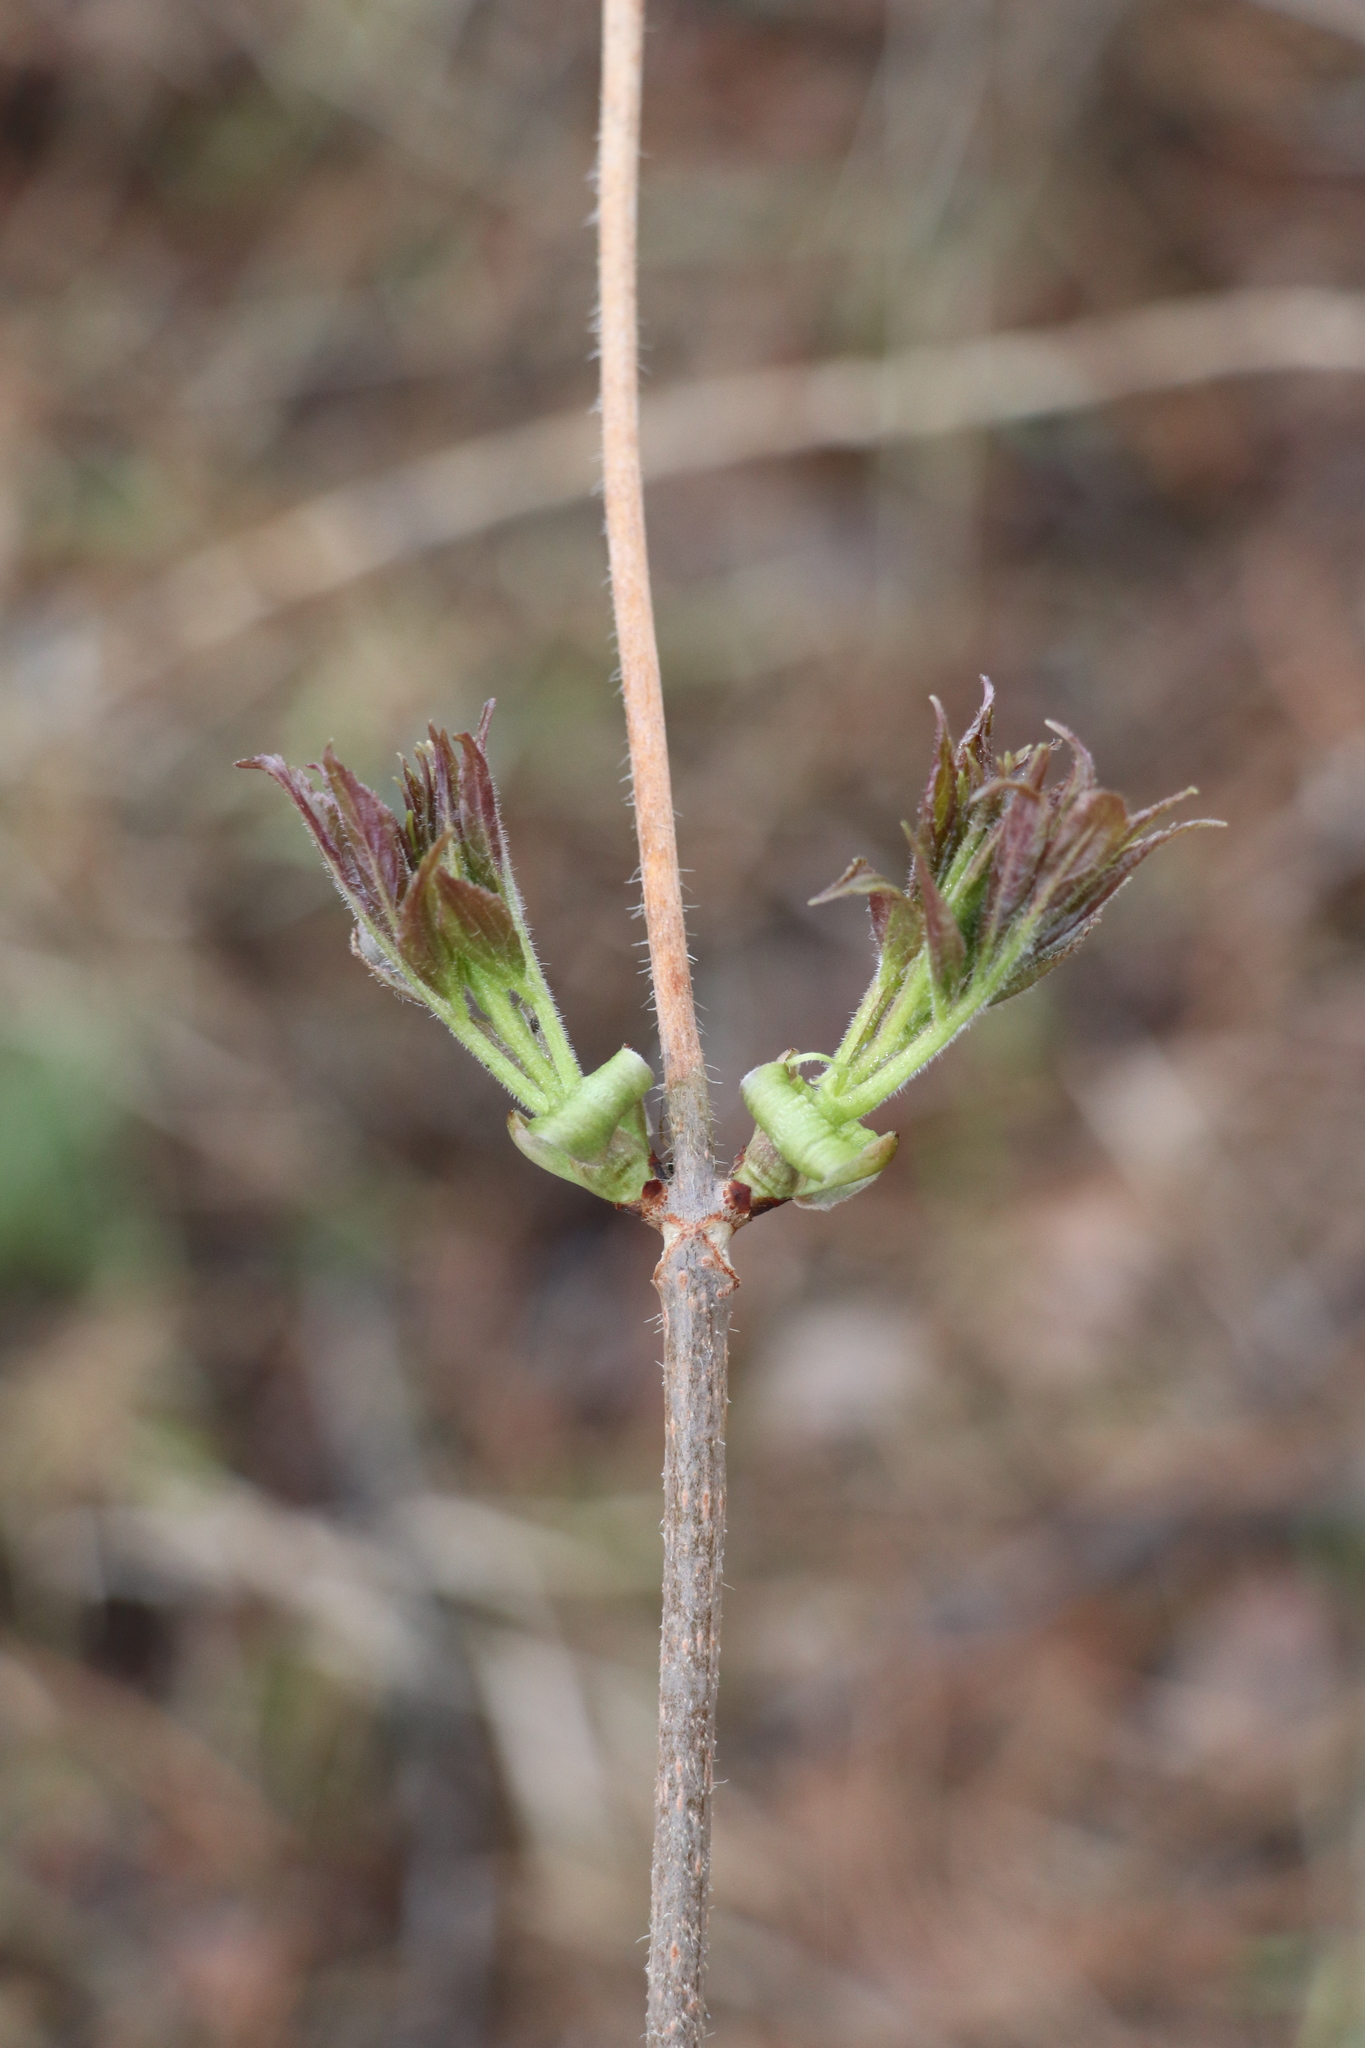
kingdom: Plantae
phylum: Tracheophyta
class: Magnoliopsida
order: Dipsacales
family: Viburnaceae
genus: Sambucus
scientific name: Sambucus sibirica
